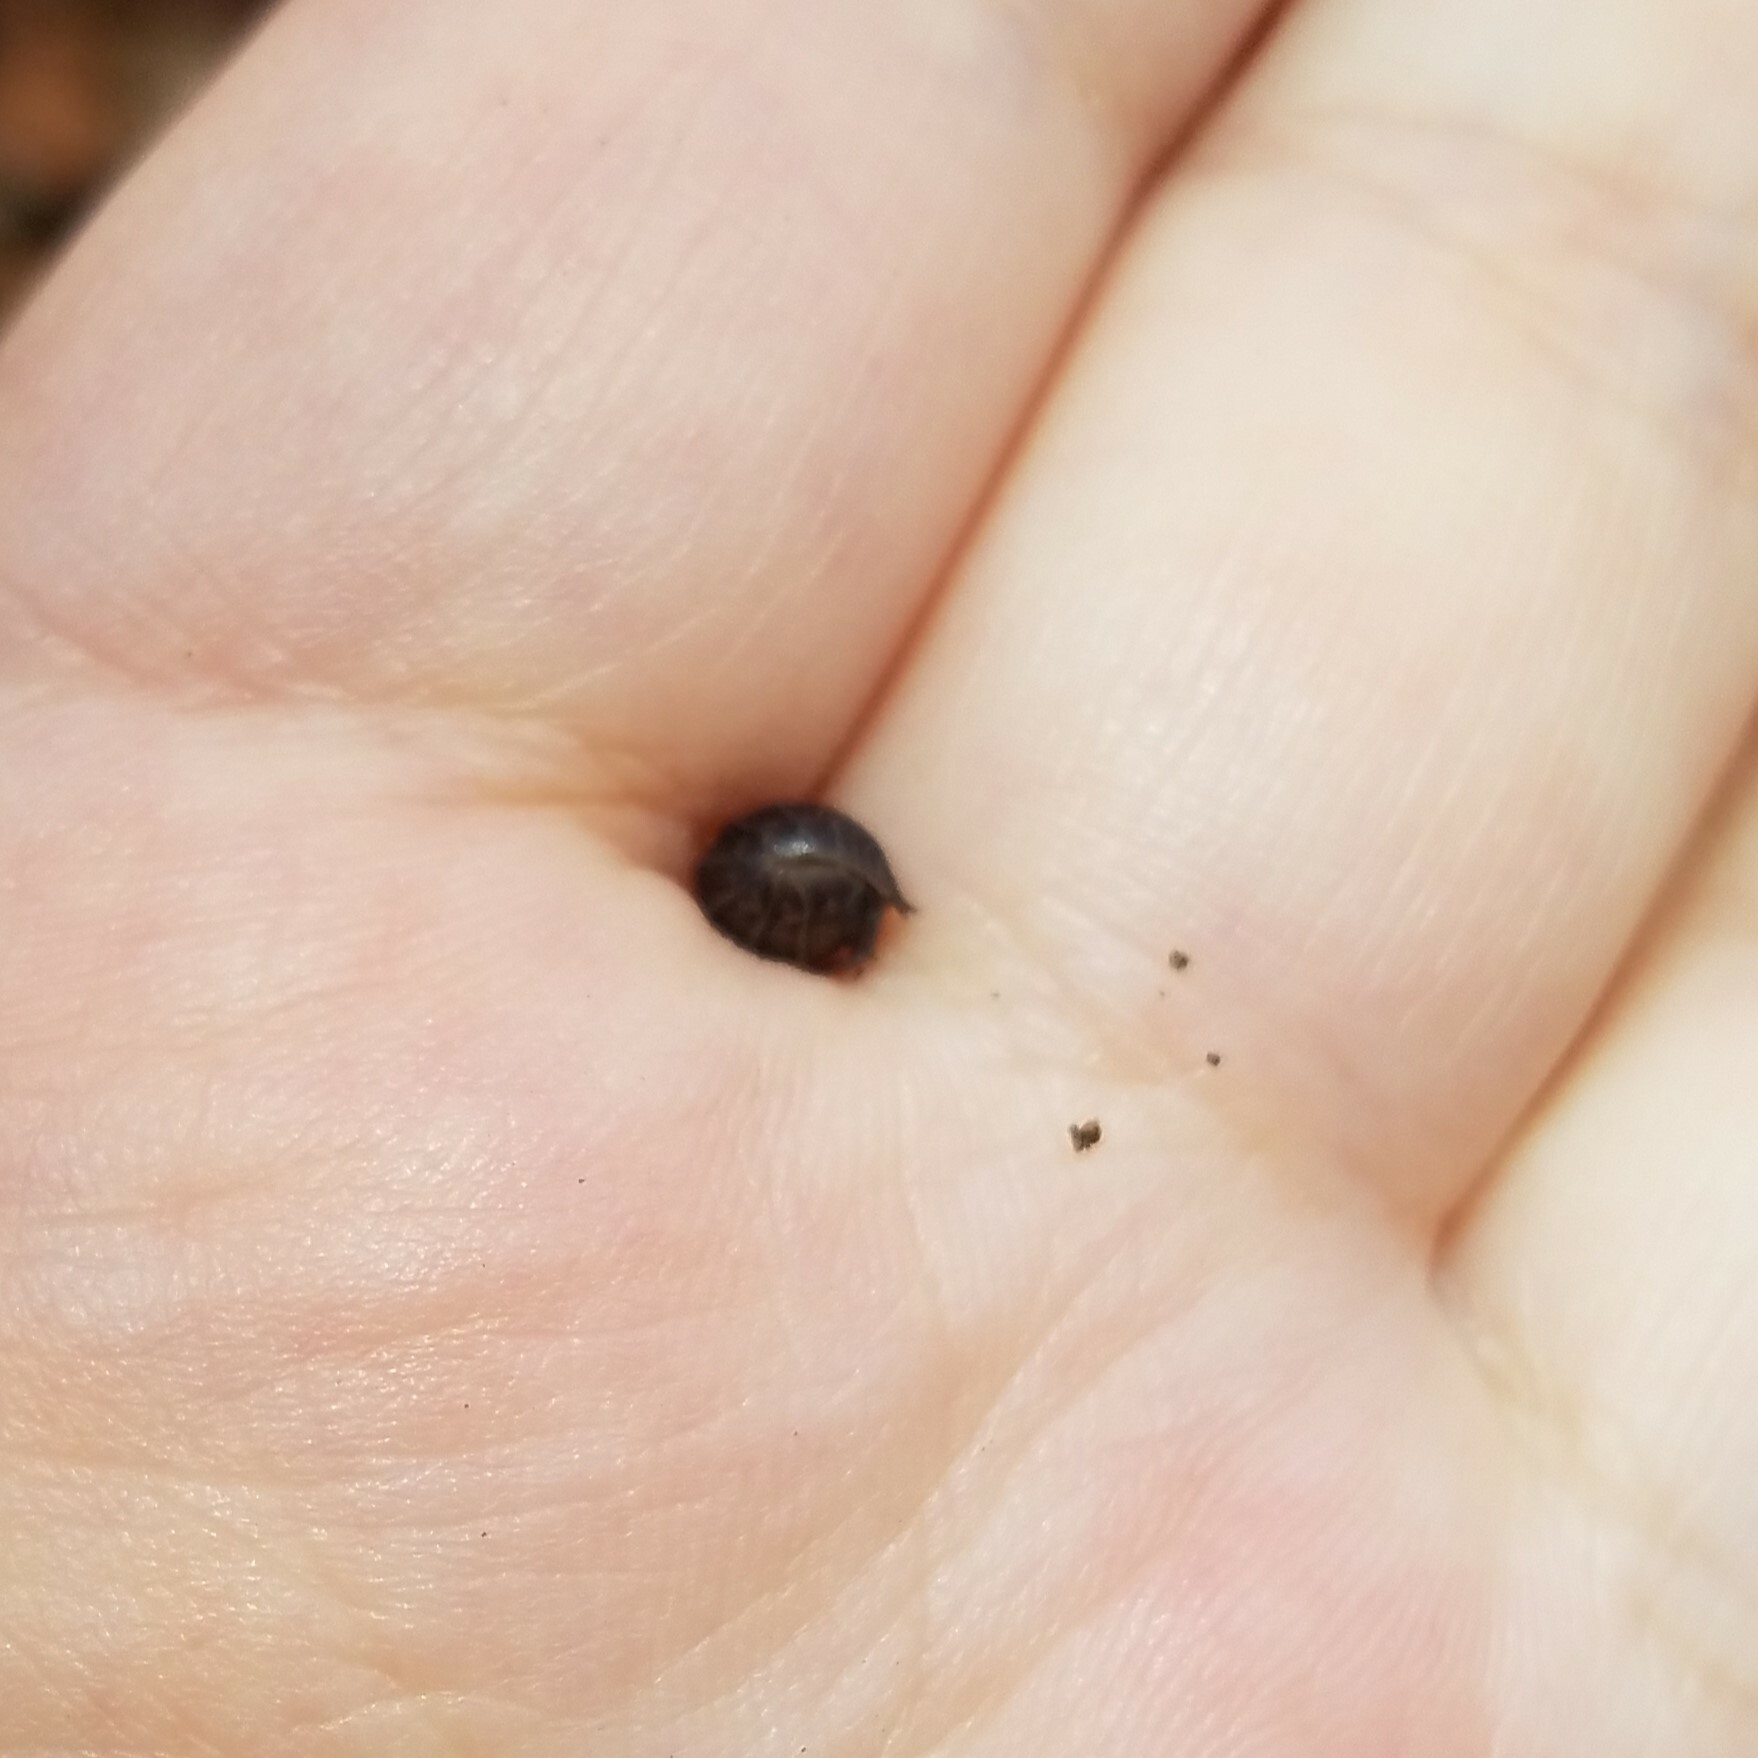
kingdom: Animalia
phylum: Arthropoda
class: Malacostraca
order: Isopoda
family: Cylisticidae
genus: Cylisticus
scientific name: Cylisticus convexus
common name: Curly woodlouse
